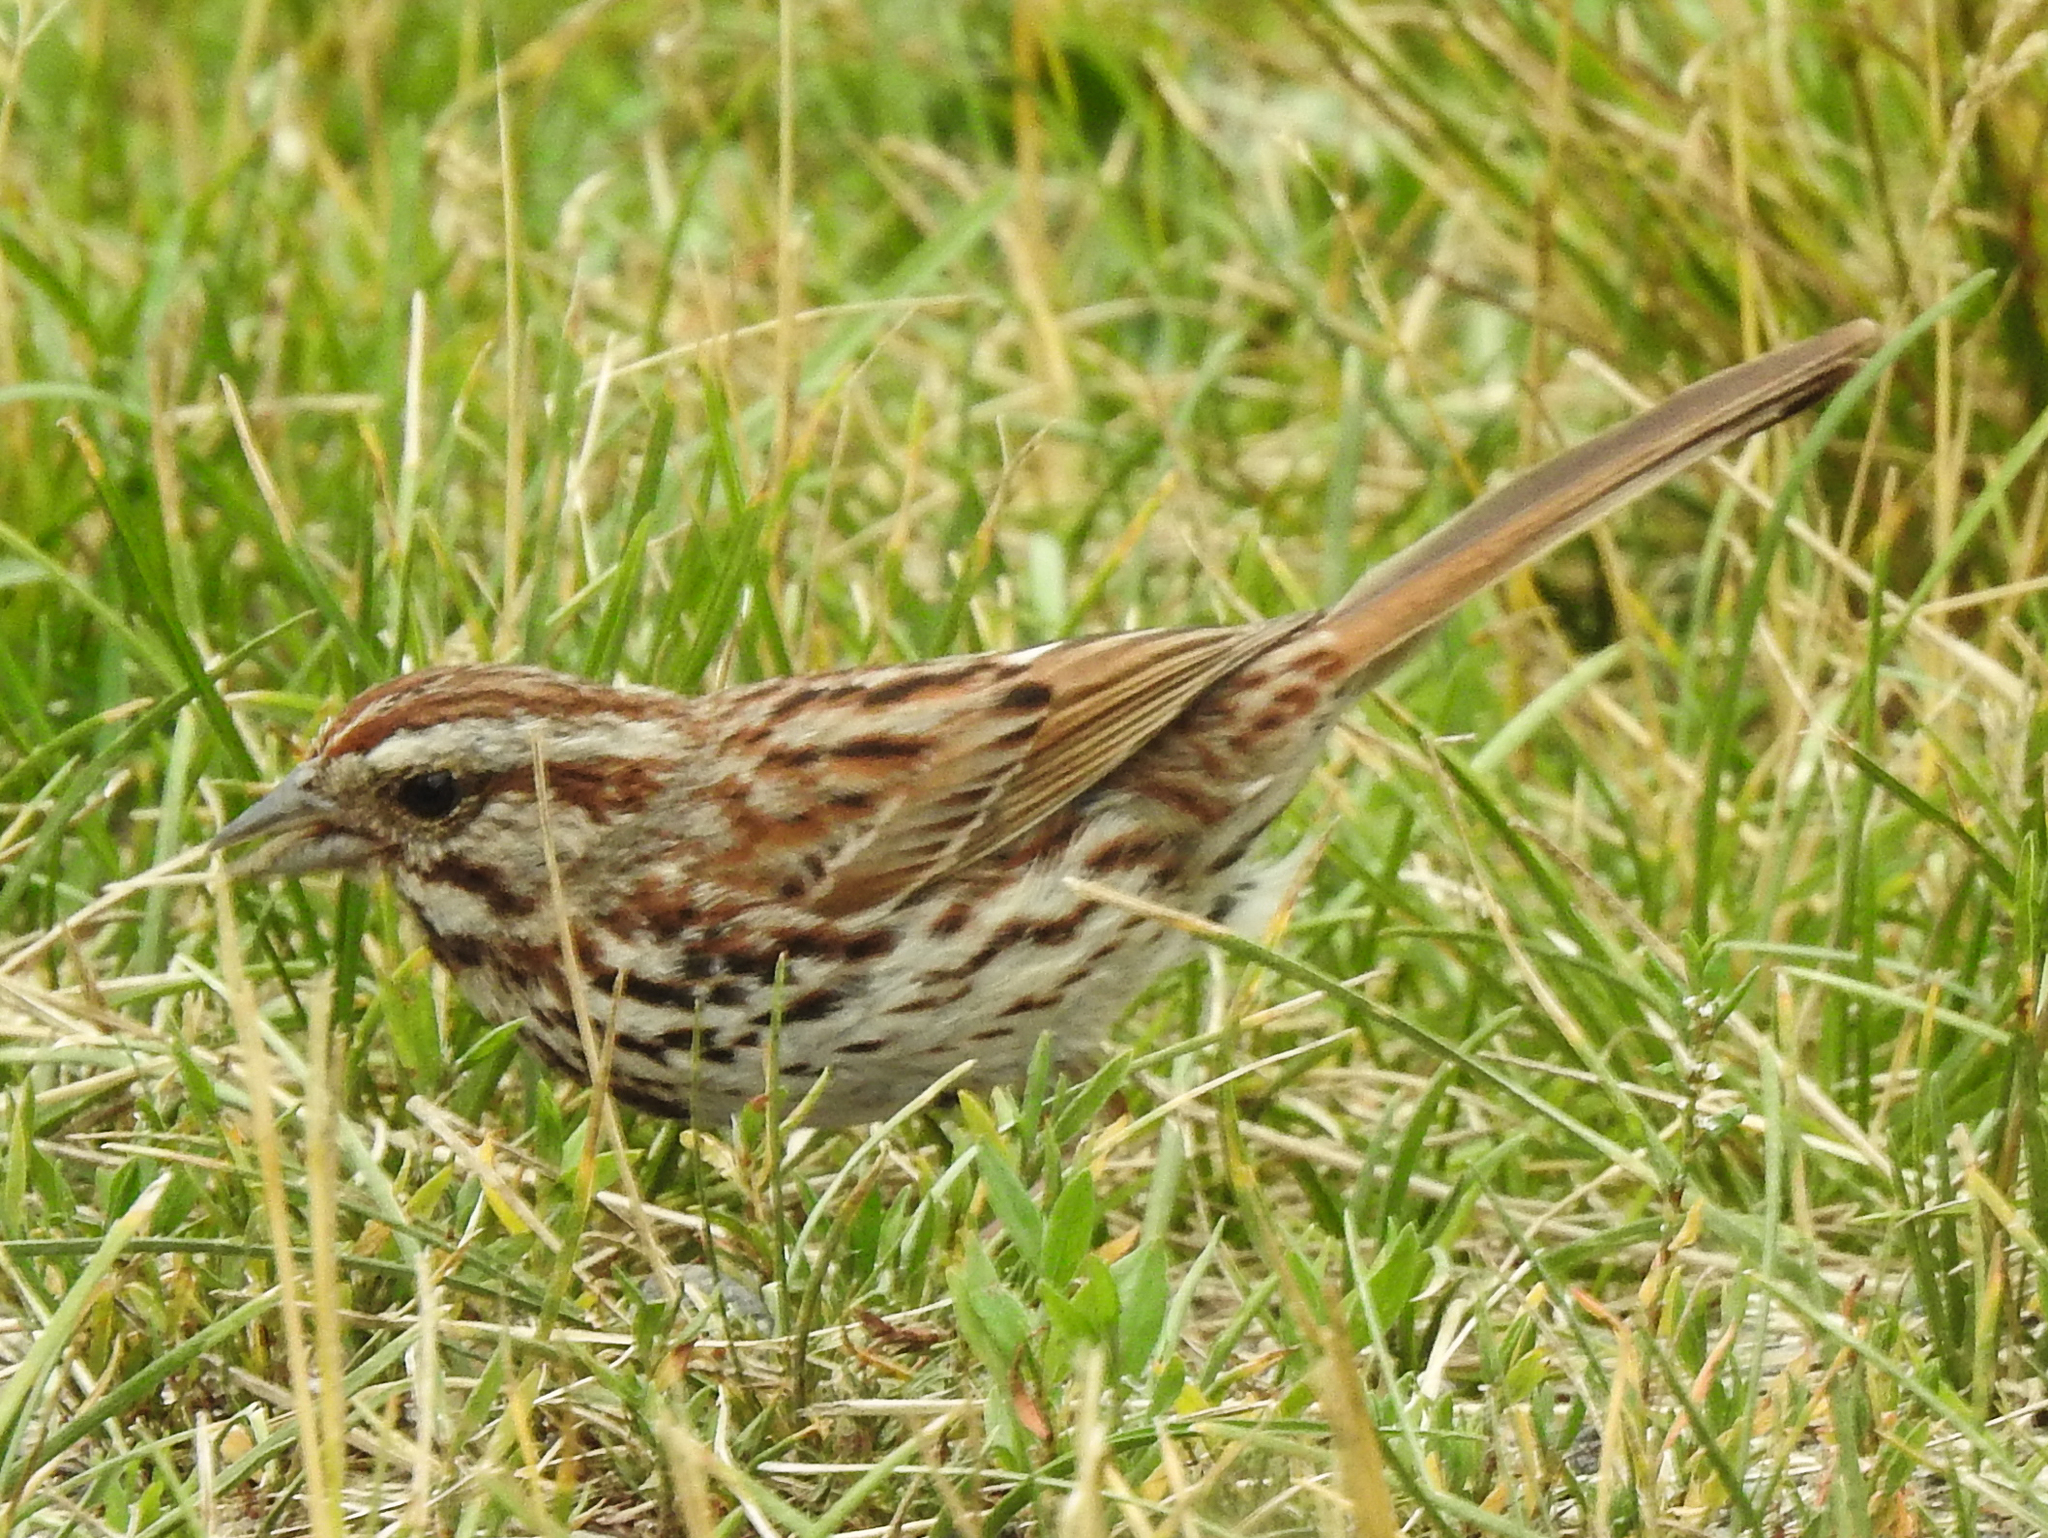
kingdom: Animalia
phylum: Chordata
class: Aves
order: Passeriformes
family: Passerellidae
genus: Melospiza
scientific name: Melospiza melodia
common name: Song sparrow
